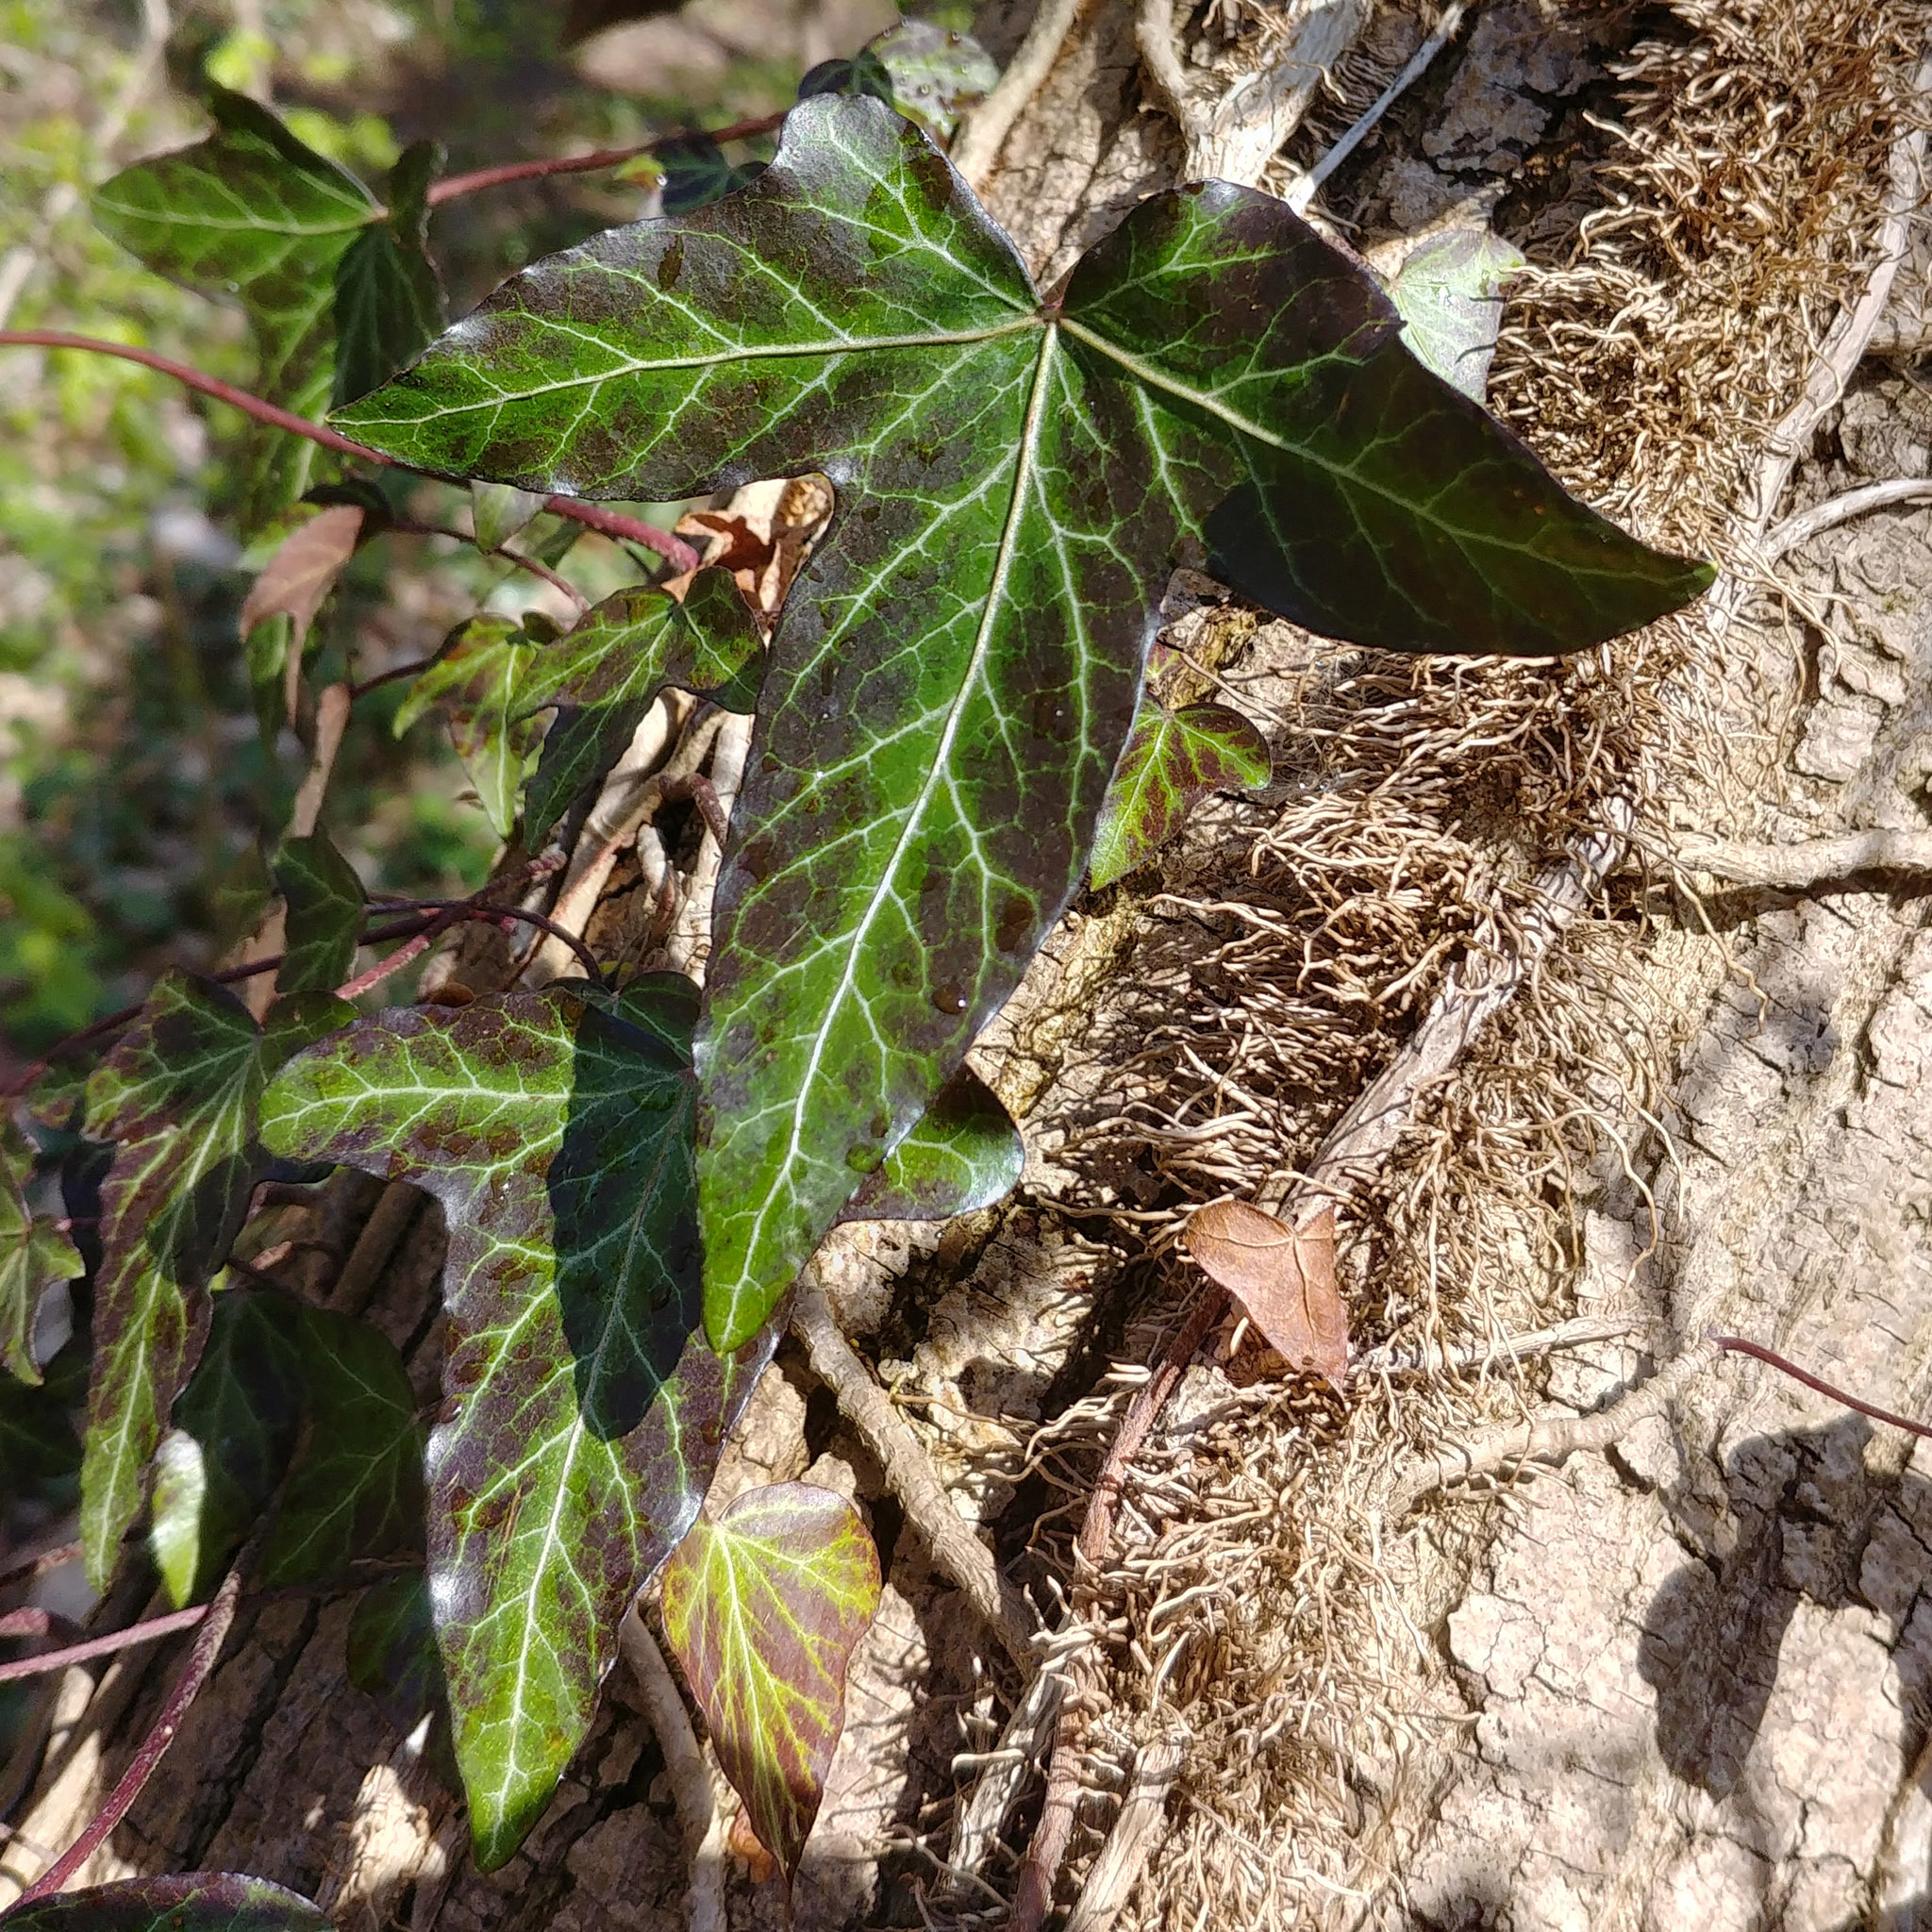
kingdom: Plantae
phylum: Tracheophyta
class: Magnoliopsida
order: Apiales
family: Araliaceae
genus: Hedera
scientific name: Hedera helix
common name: Ivy
